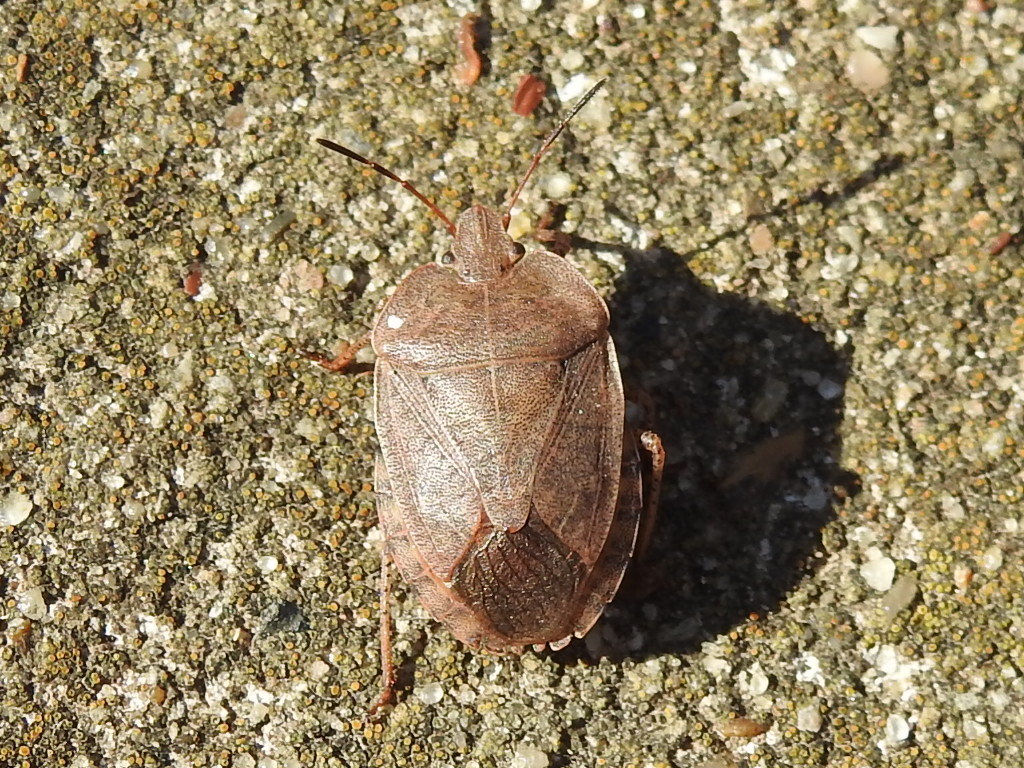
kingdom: Animalia
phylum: Arthropoda
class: Insecta
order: Hemiptera
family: Pentatomidae
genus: Menecles
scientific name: Menecles insertus
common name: Elf shoe stink bug
